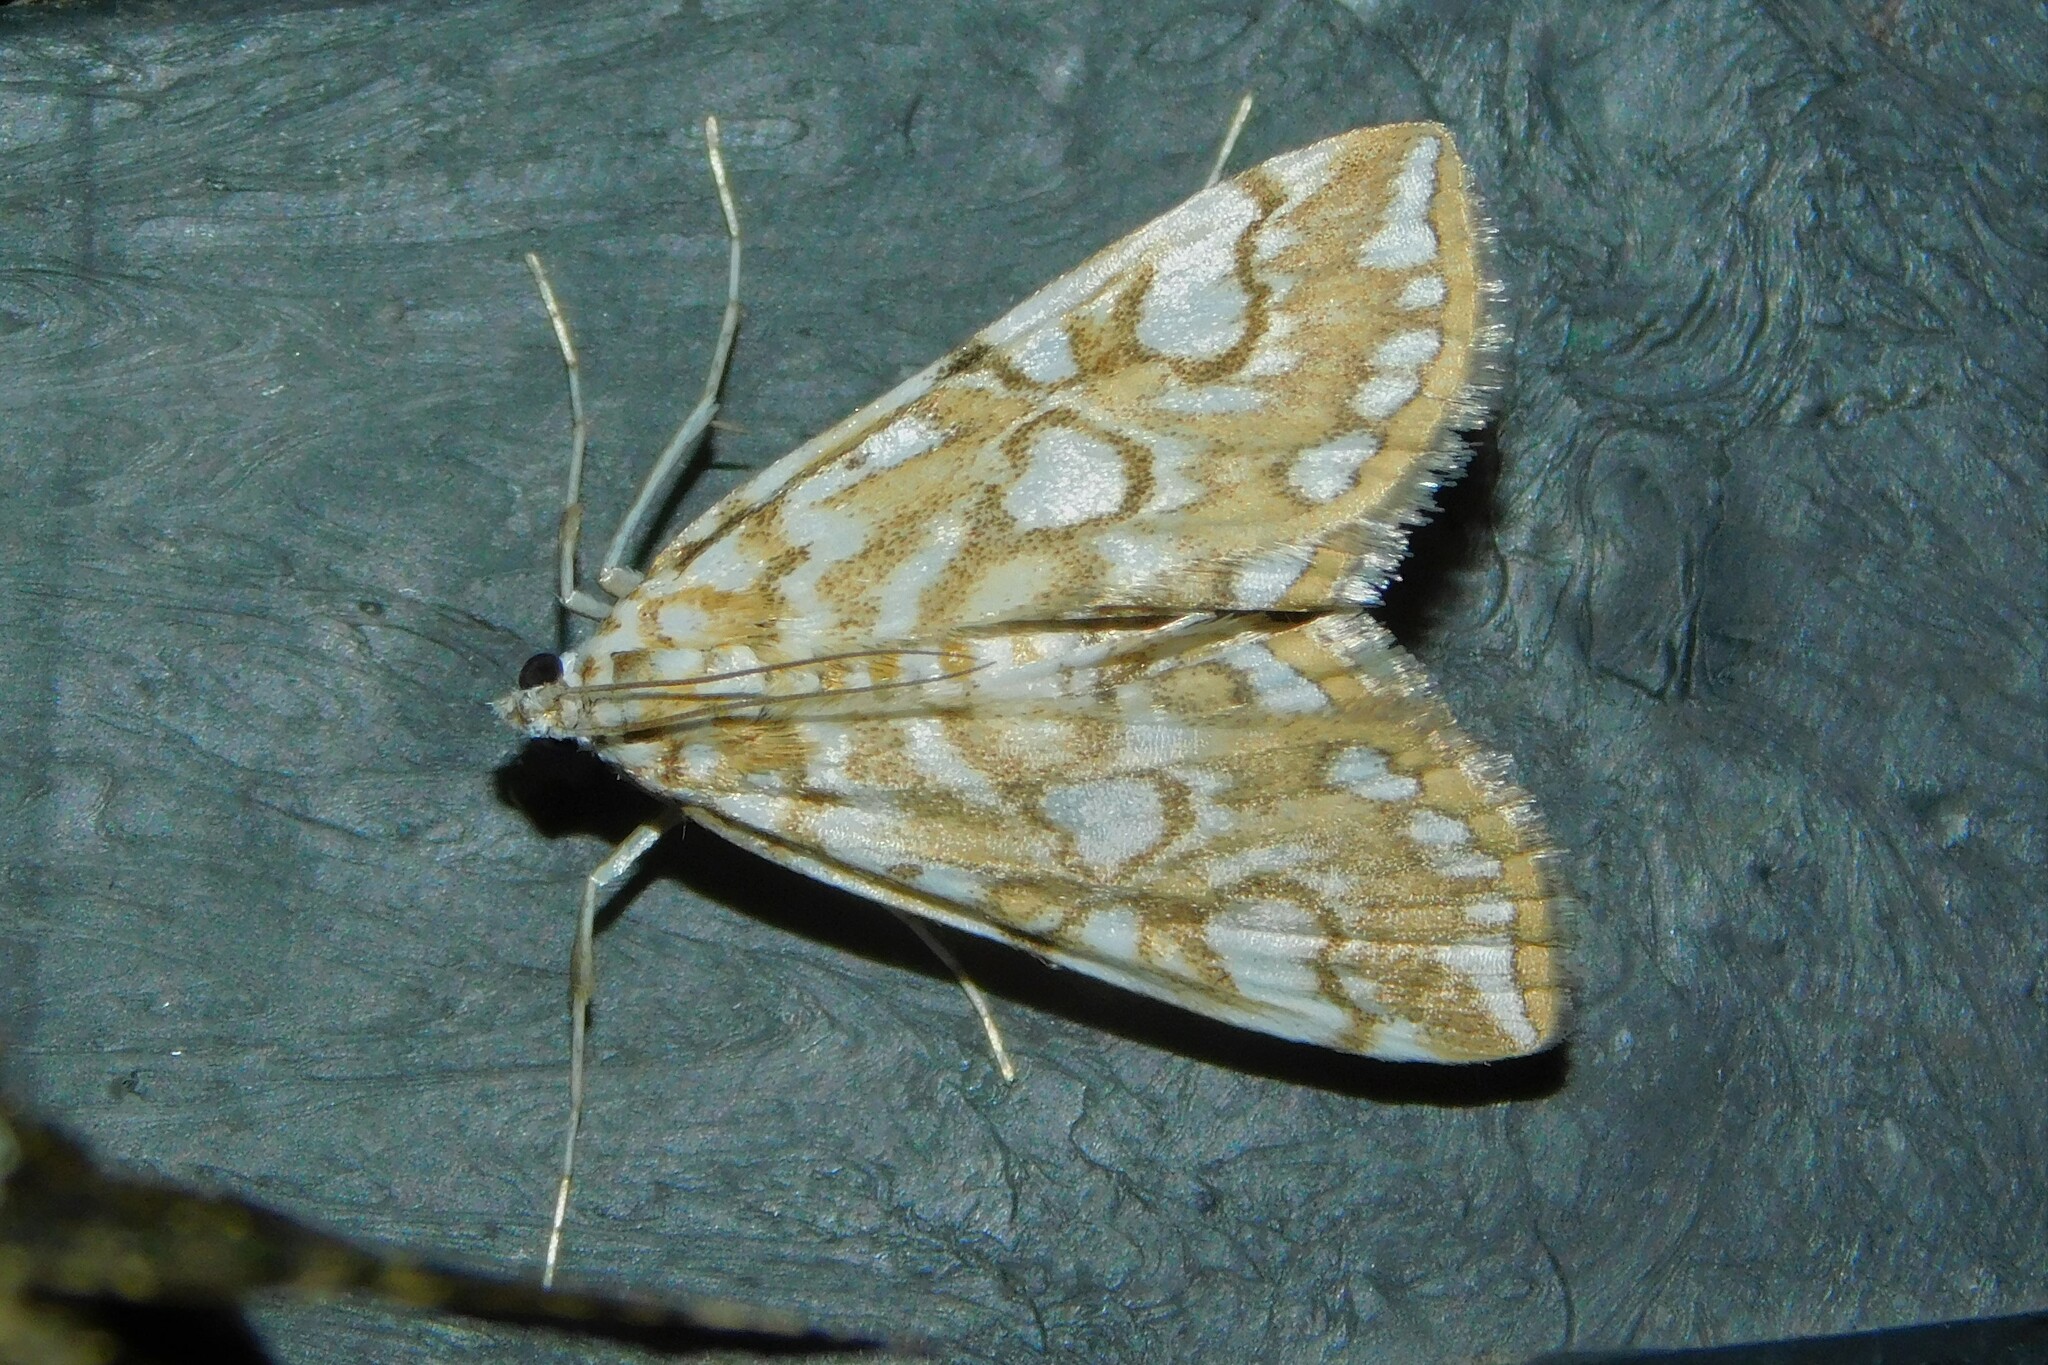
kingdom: Animalia
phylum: Arthropoda
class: Insecta
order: Lepidoptera
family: Crambidae
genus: Elophila
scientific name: Elophila nymphaeata
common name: Brown china-mark
